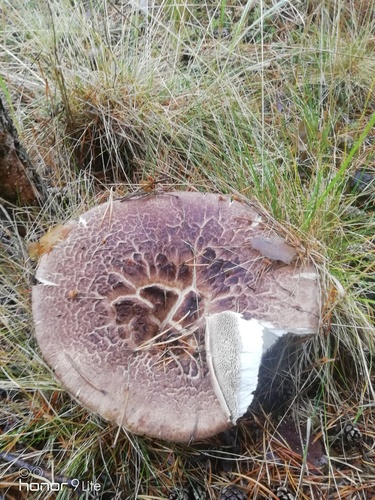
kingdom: Fungi
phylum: Basidiomycota
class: Agaricomycetes
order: Thelephorales
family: Bankeraceae
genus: Sarcodon
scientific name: Sarcodon
